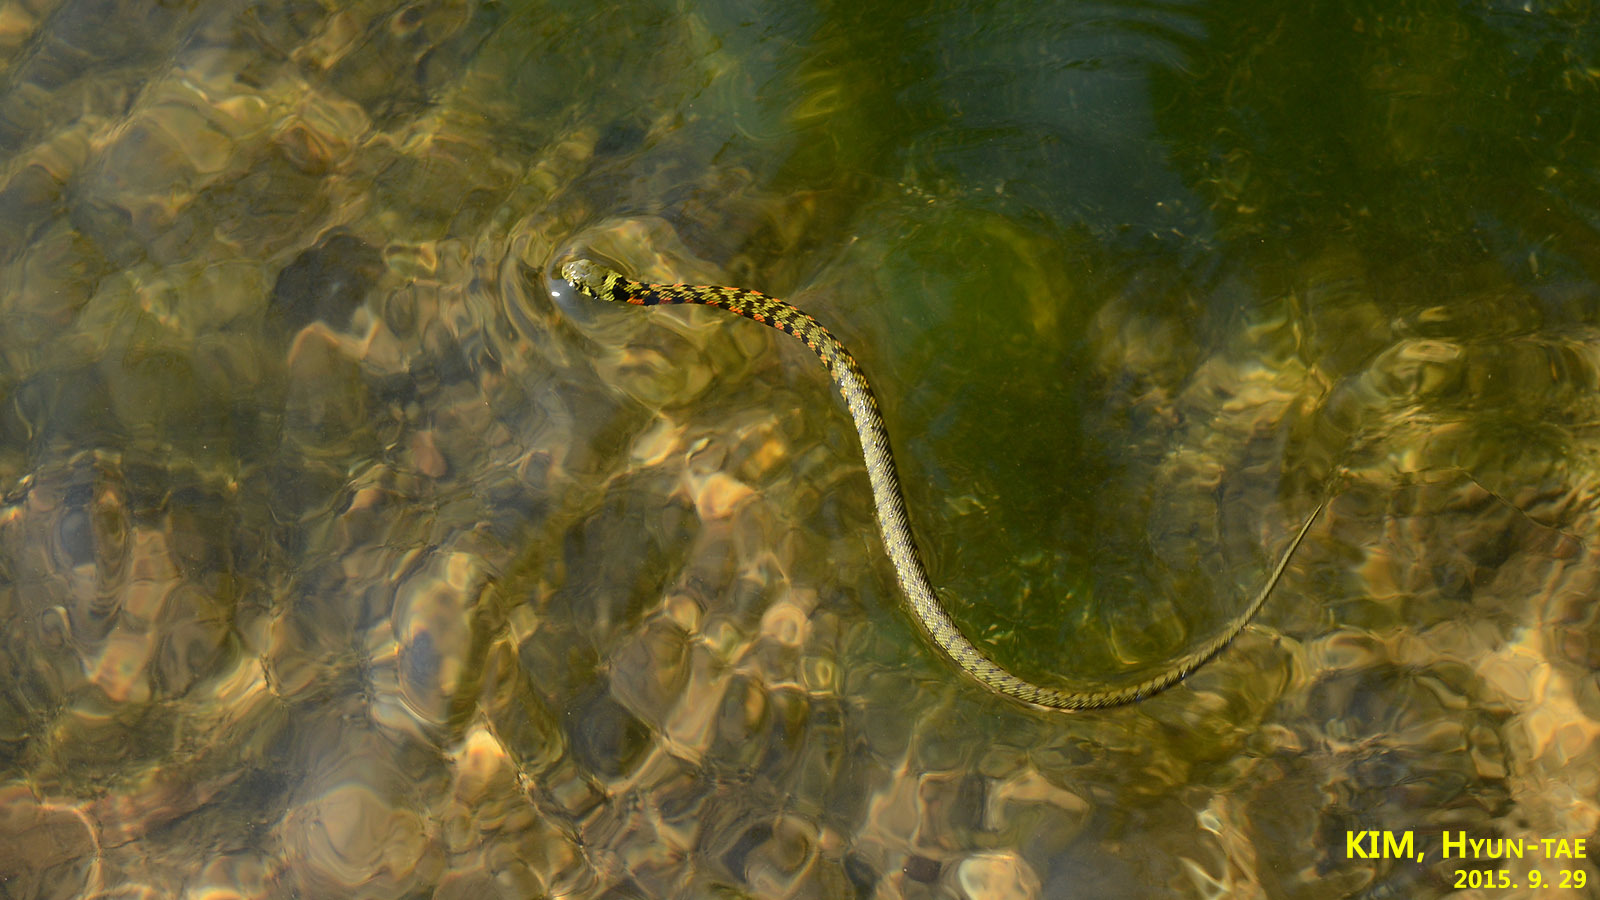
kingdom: Animalia
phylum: Chordata
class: Squamata
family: Colubridae
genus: Rhabdophis
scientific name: Rhabdophis tigrinus
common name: Tiger keelback
